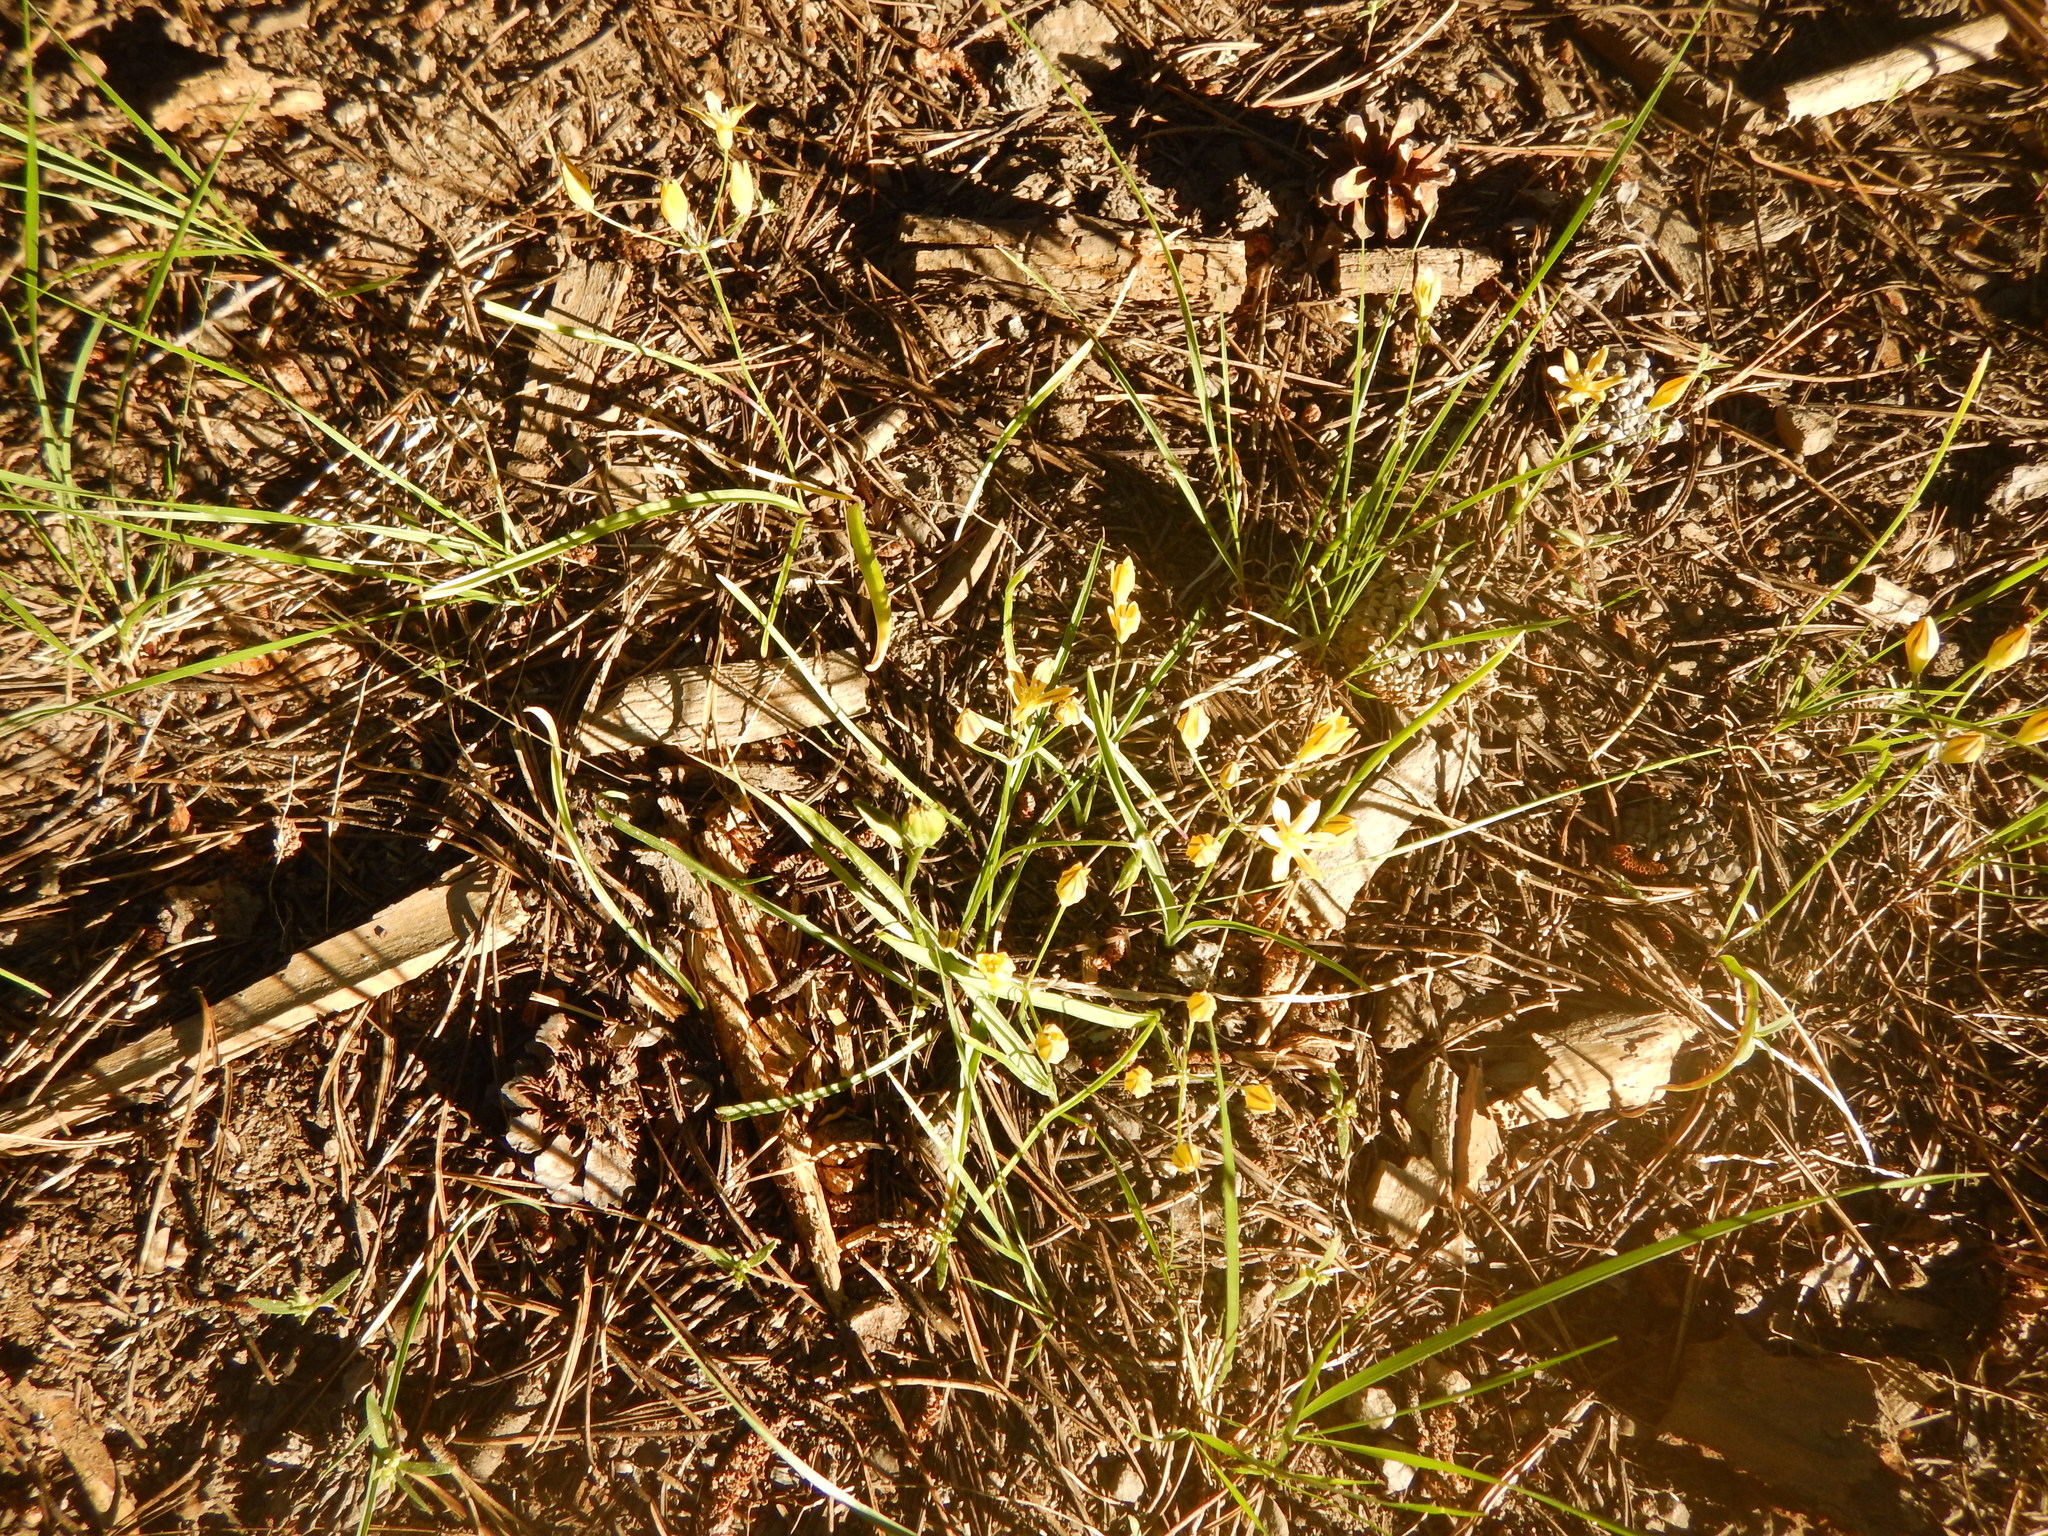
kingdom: Plantae
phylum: Tracheophyta
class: Liliopsida
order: Asparagales
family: Asparagaceae
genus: Triteleia
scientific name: Triteleia ixioides
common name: Yellow-brodiaea
